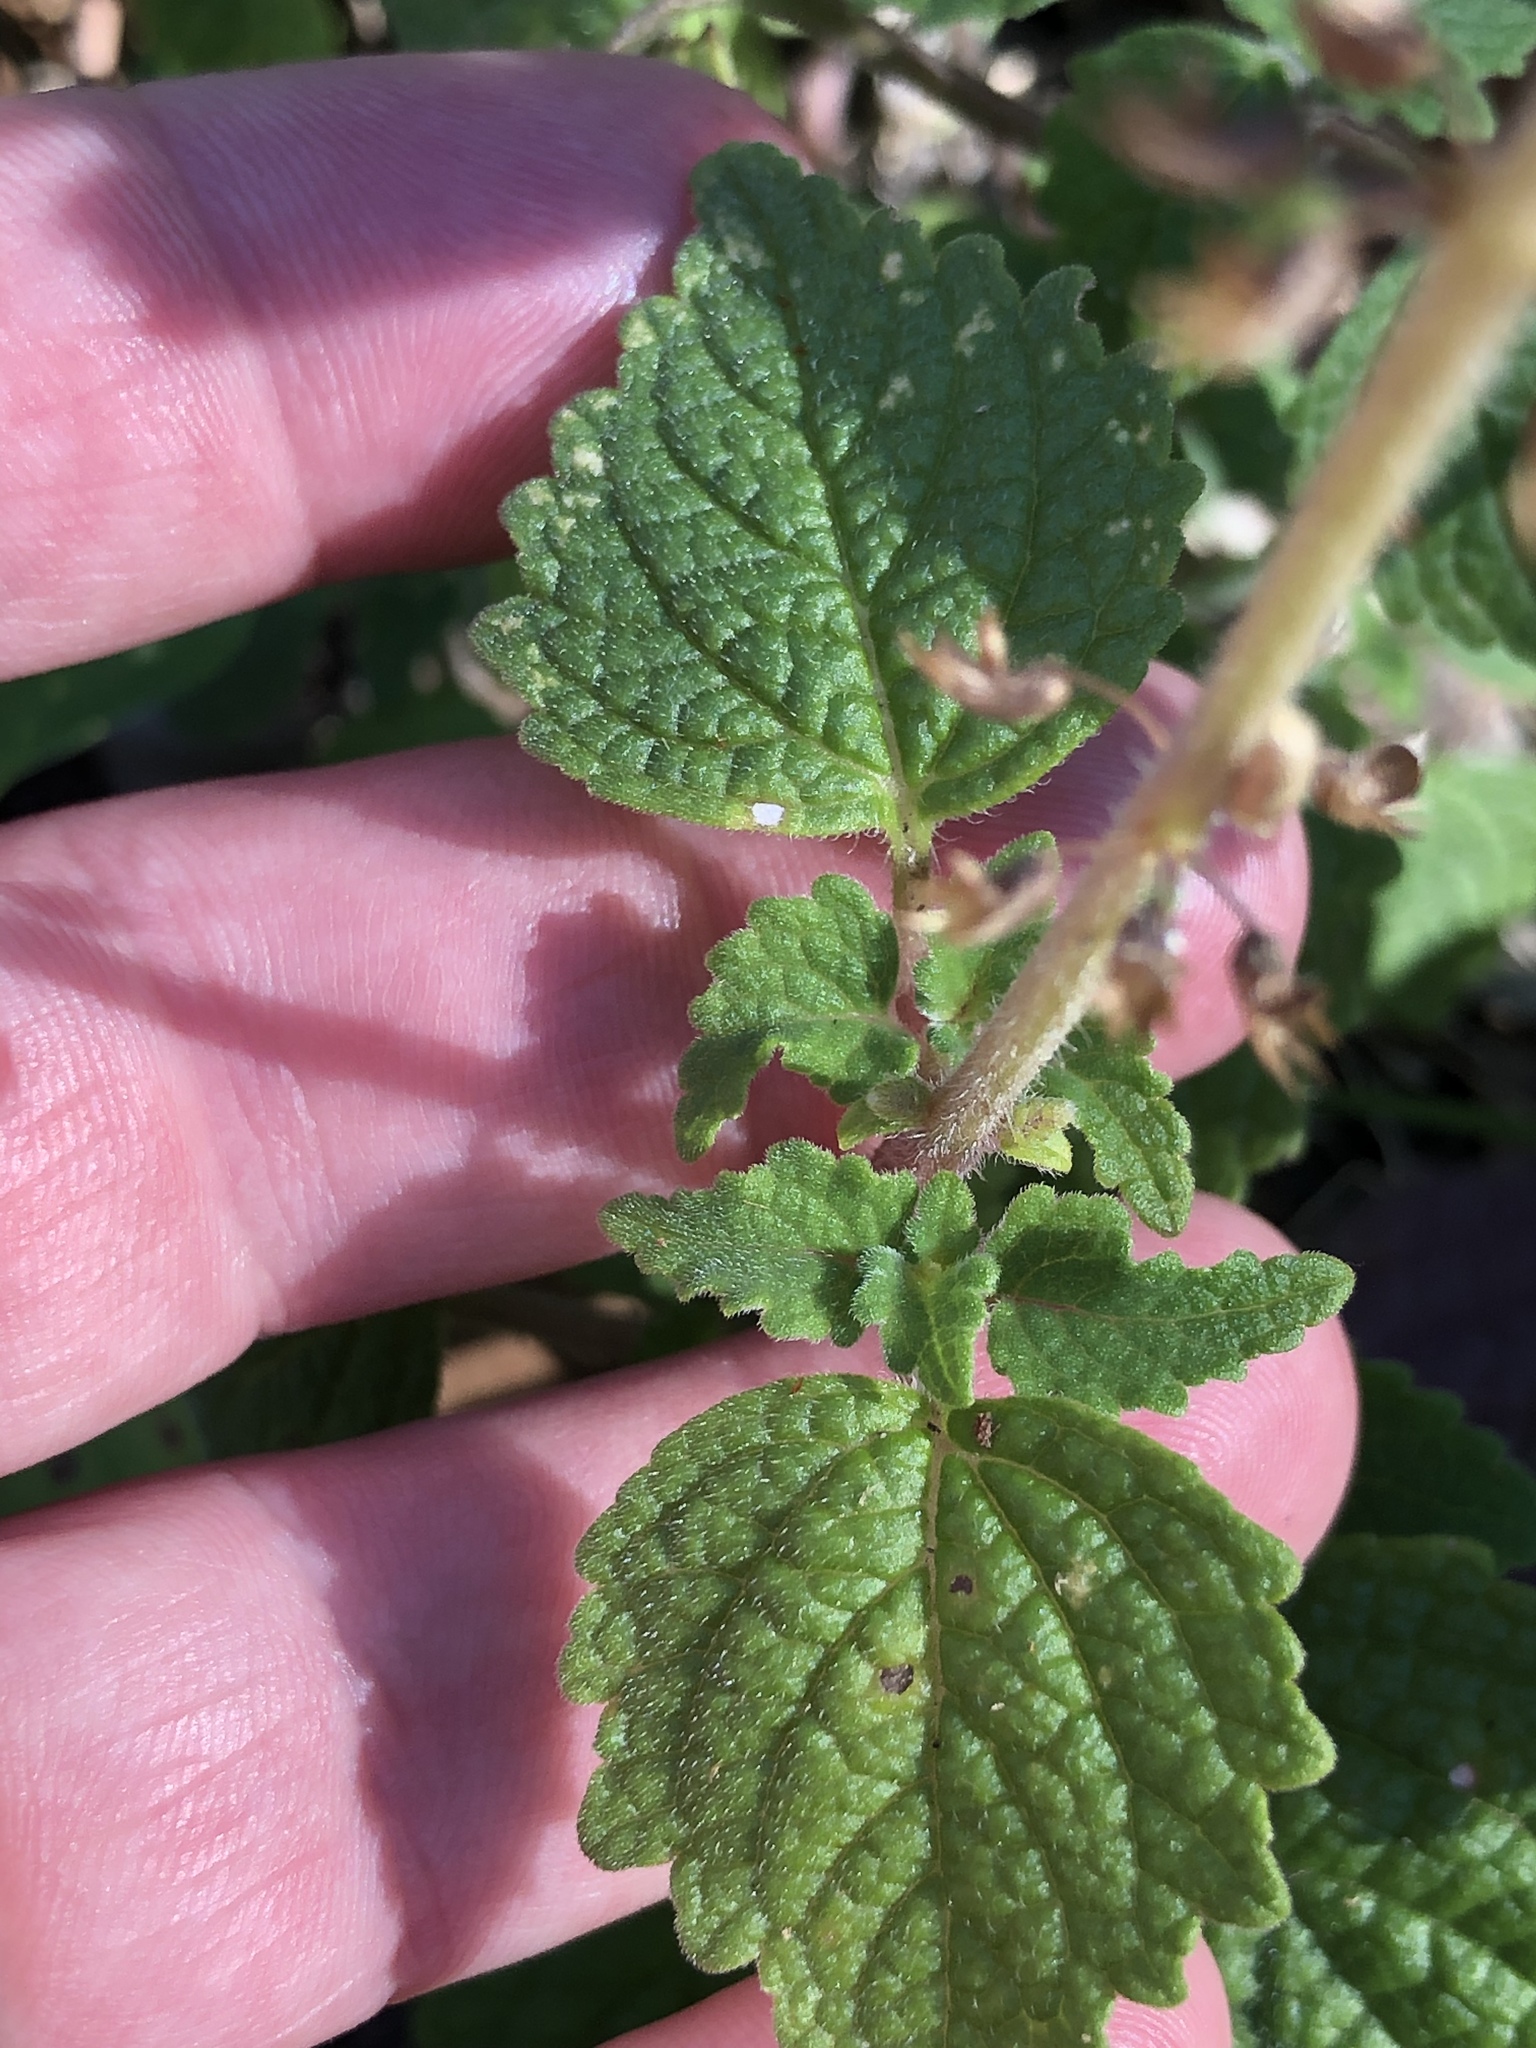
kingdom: Plantae
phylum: Tracheophyta
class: Magnoliopsida
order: Lamiales
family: Lamiaceae
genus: Coleus
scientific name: Coleus australis
